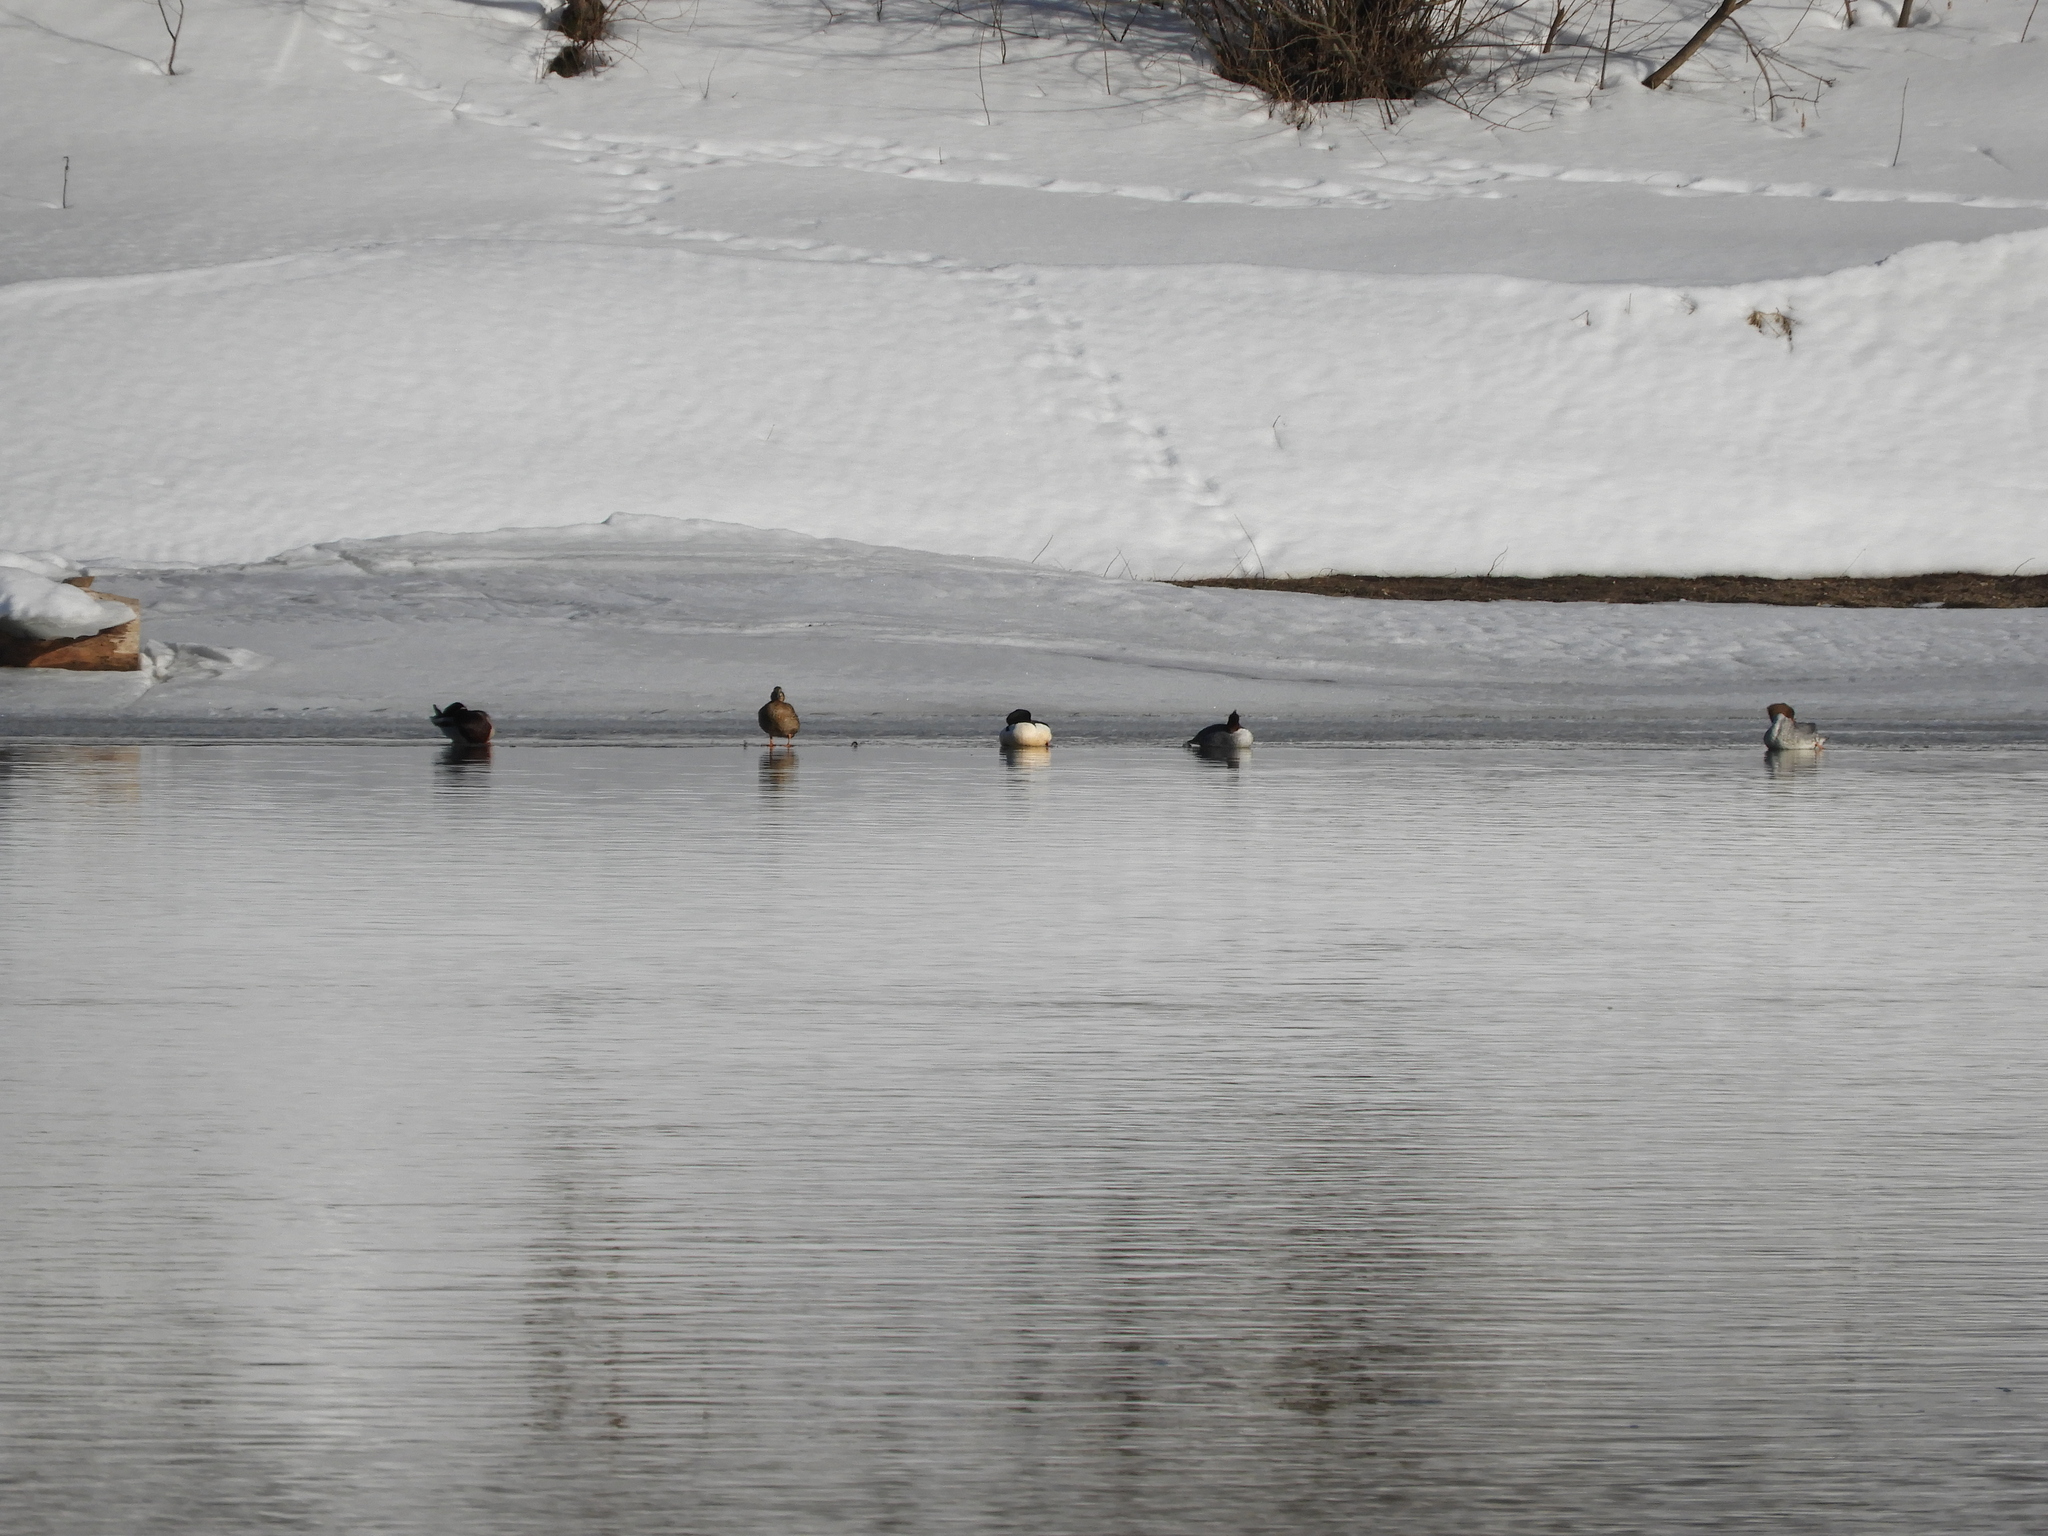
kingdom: Animalia
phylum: Chordata
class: Aves
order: Anseriformes
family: Anatidae
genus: Mergus
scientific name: Mergus merganser
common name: Common merganser
